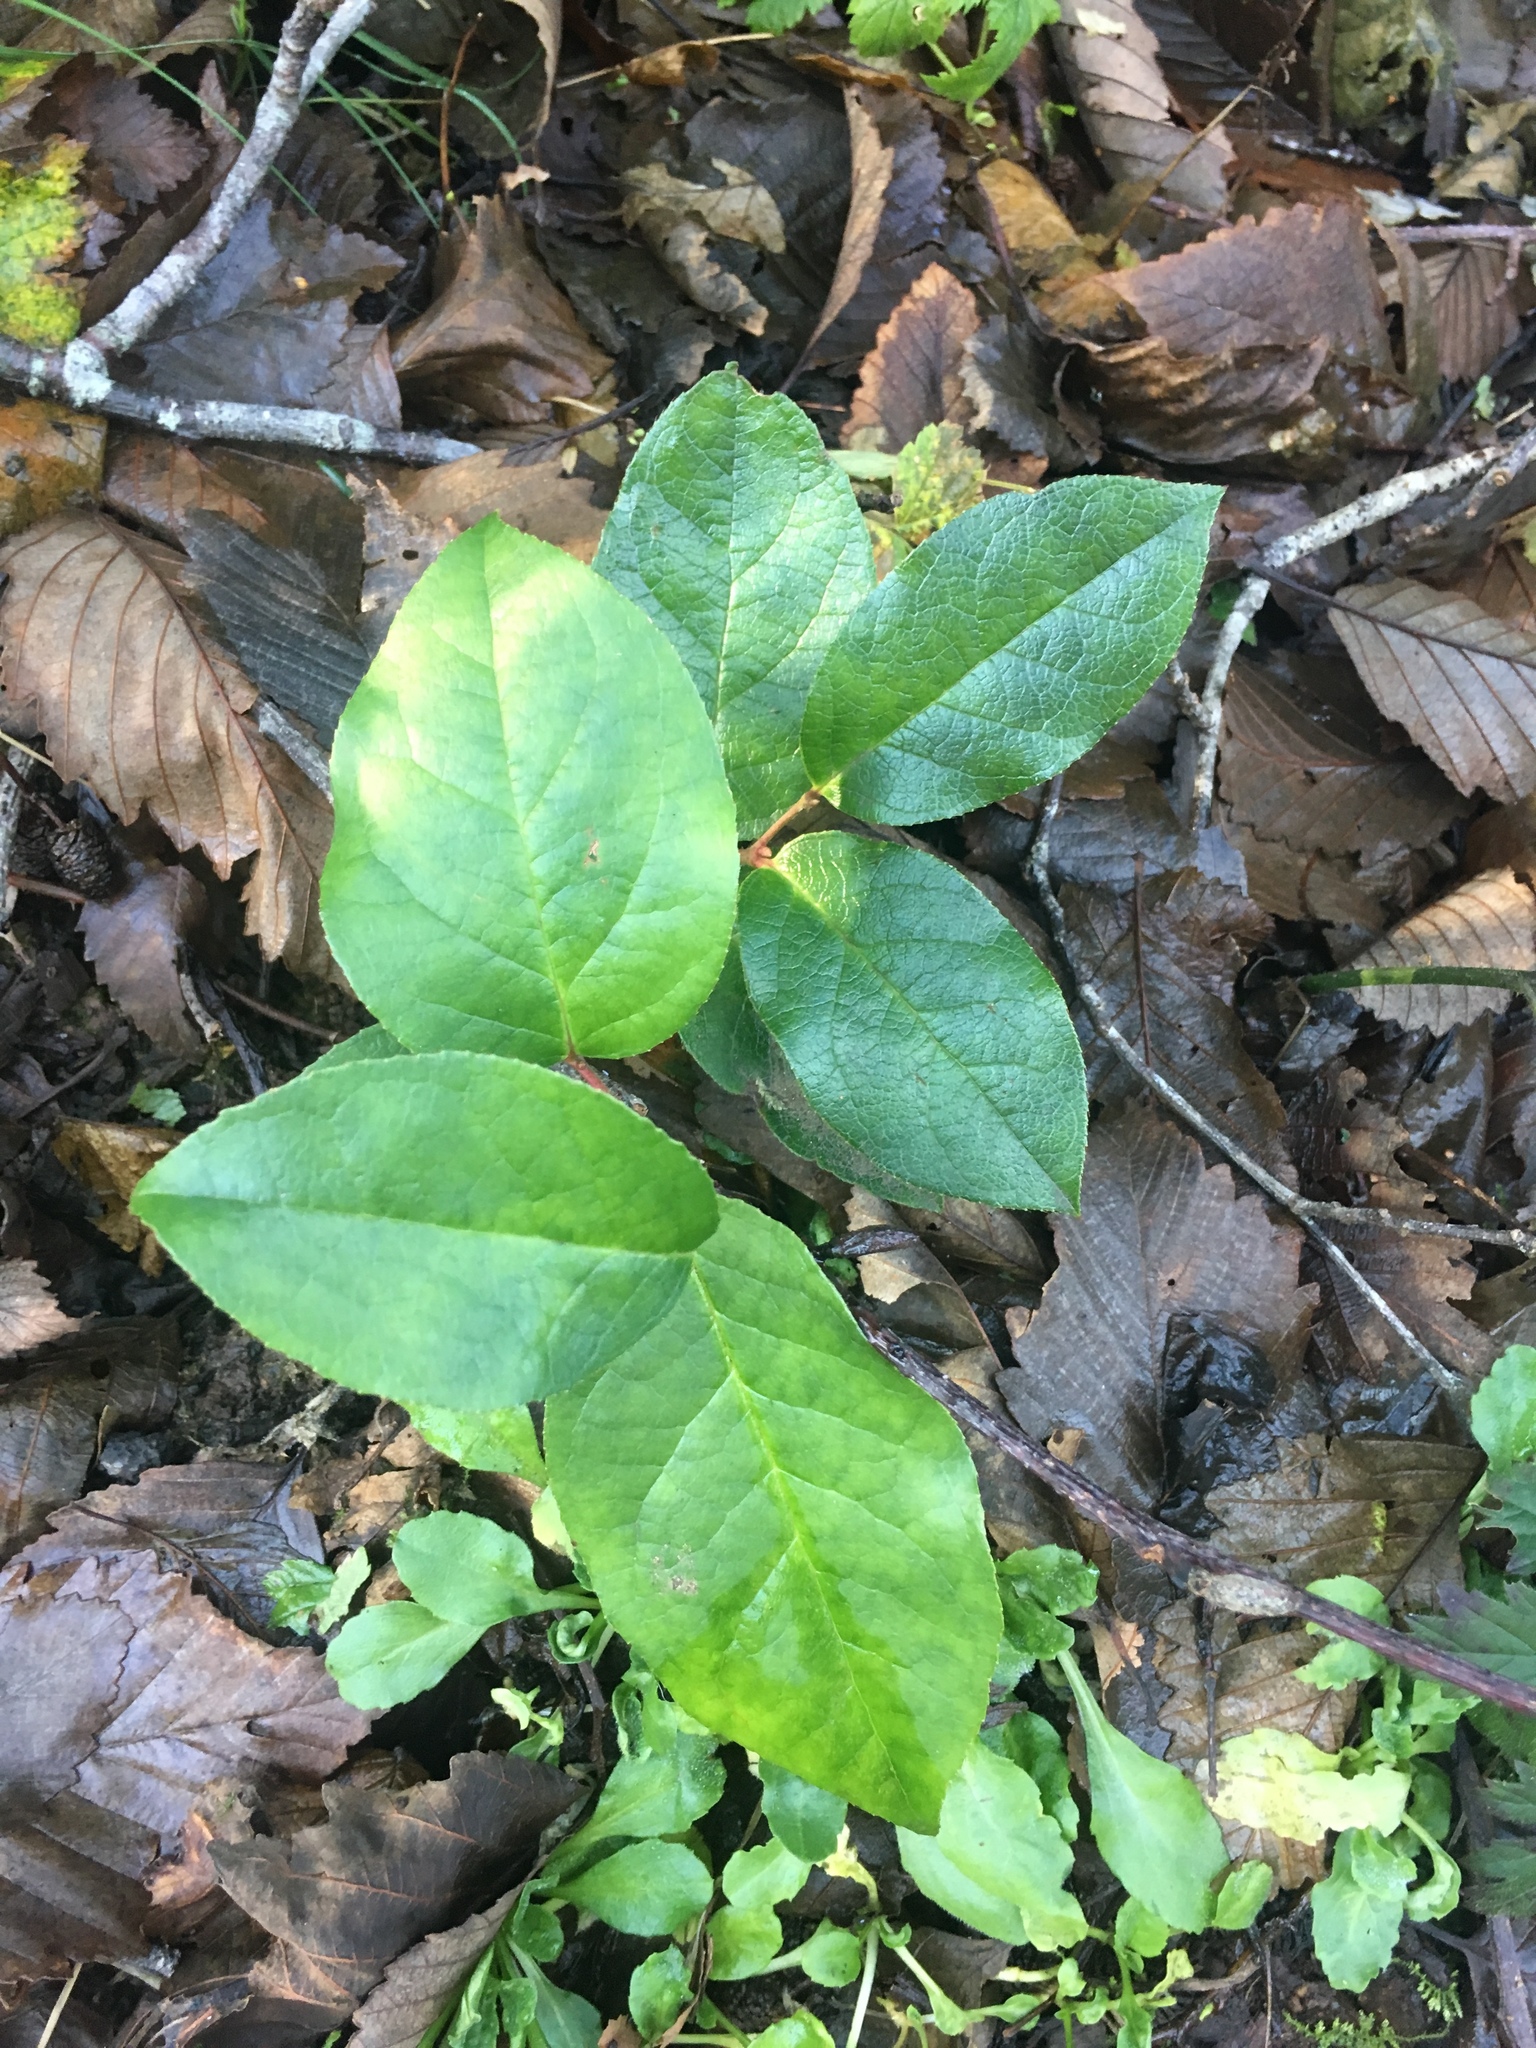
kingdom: Plantae
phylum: Tracheophyta
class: Magnoliopsida
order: Ericales
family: Ericaceae
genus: Gaultheria
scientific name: Gaultheria shallon
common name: Shallon
